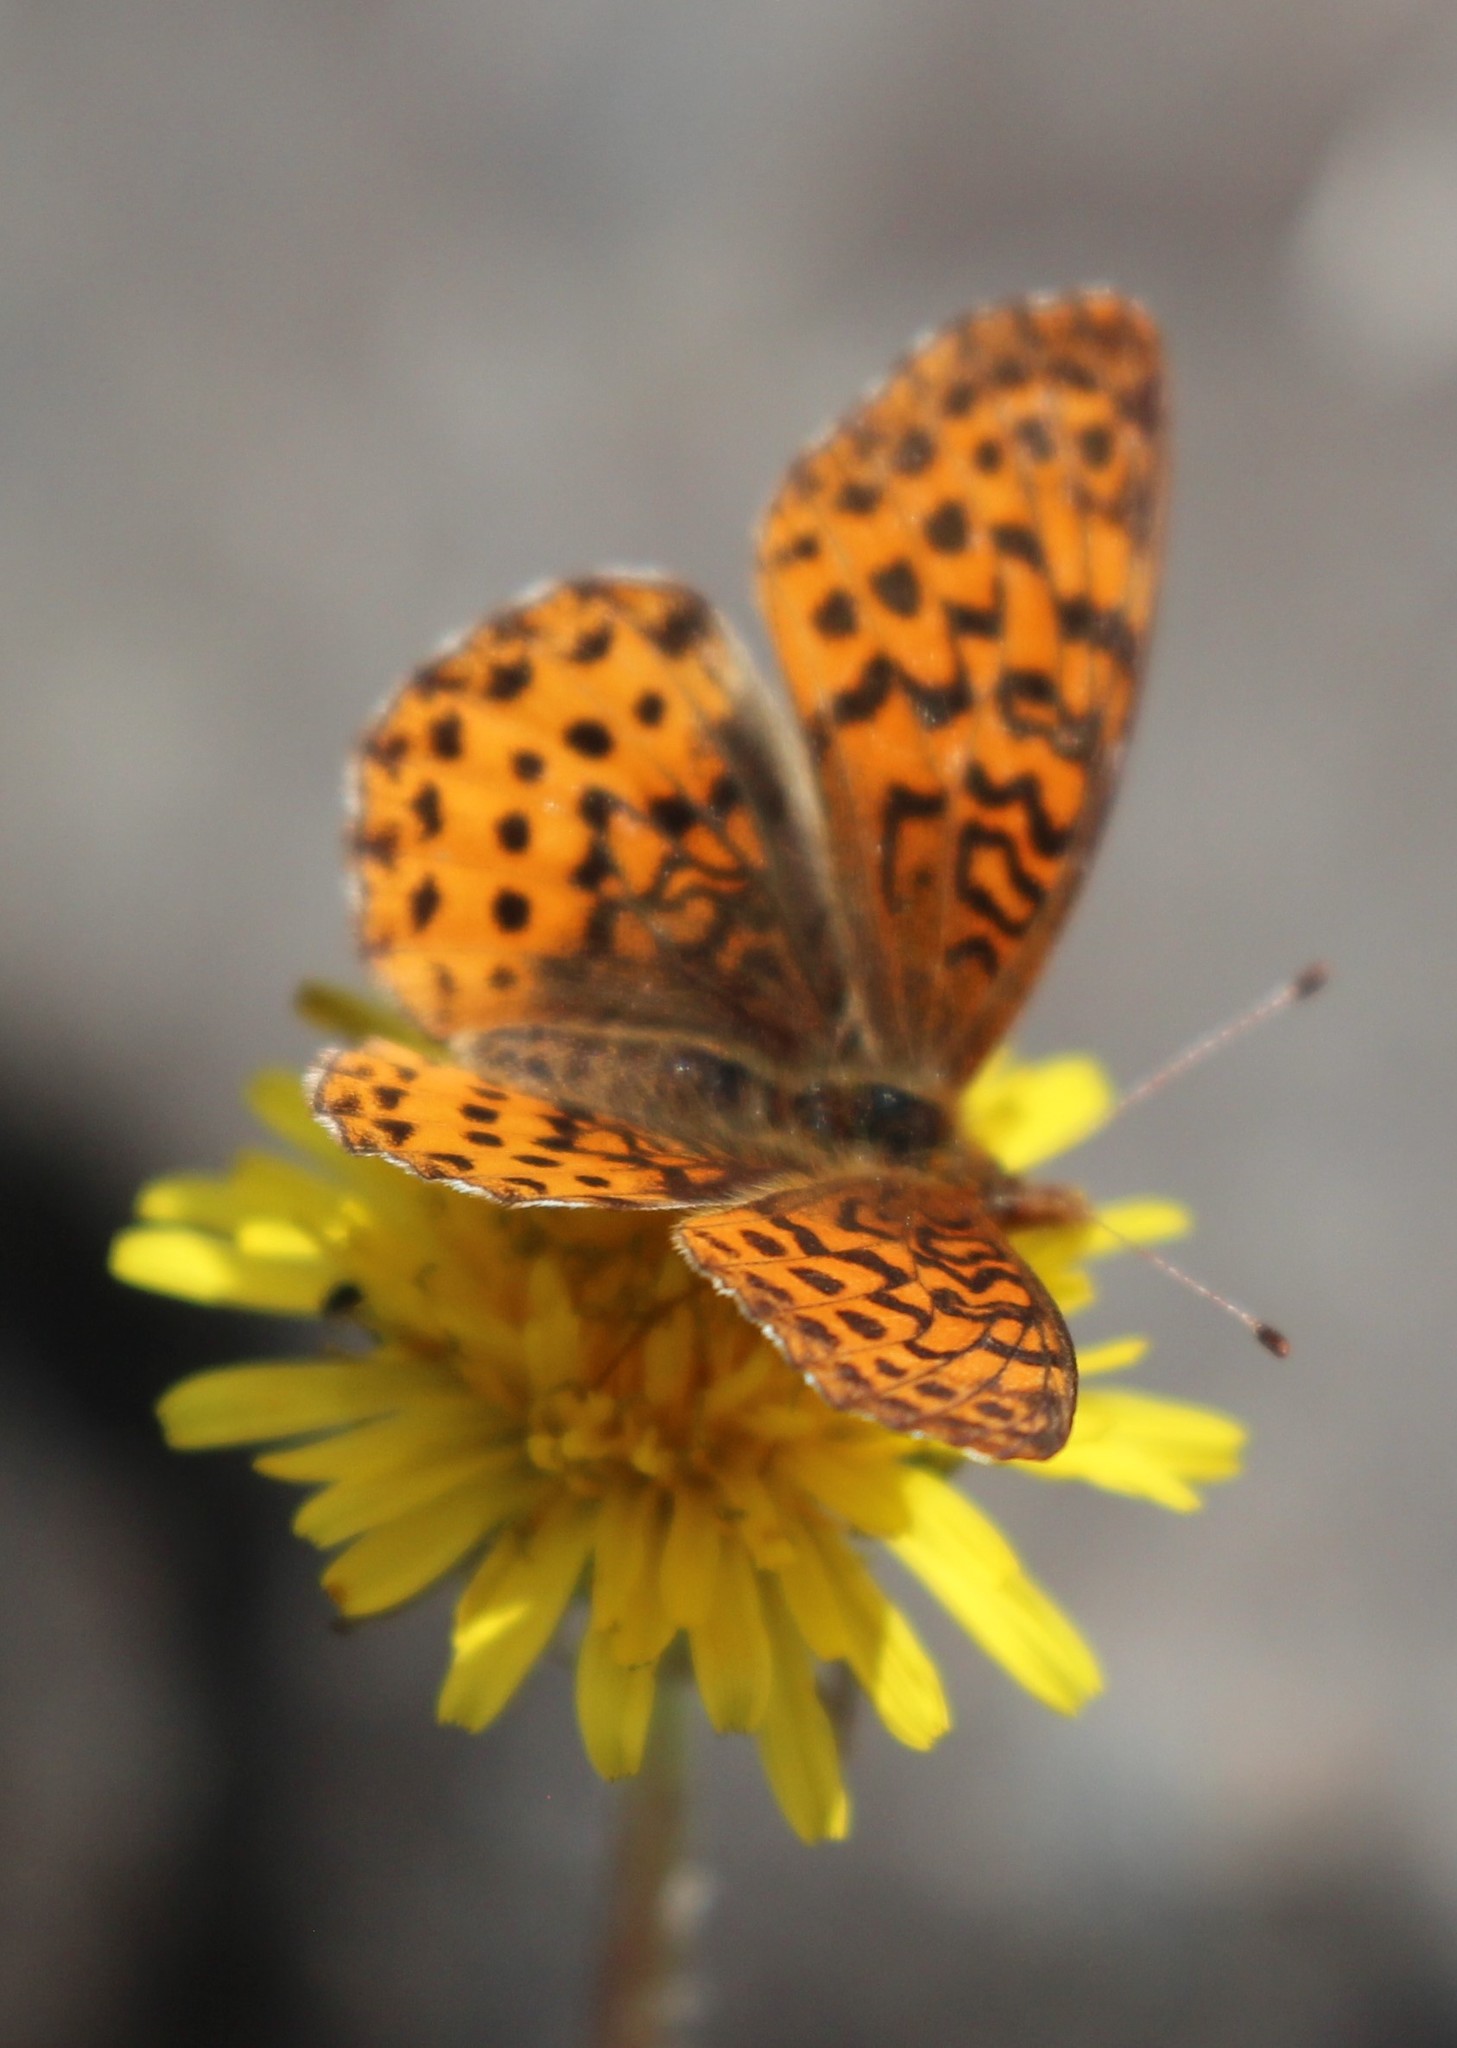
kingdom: Animalia
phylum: Arthropoda
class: Insecta
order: Lepidoptera
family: Nymphalidae
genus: Clossiana
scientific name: Clossiana toddi
